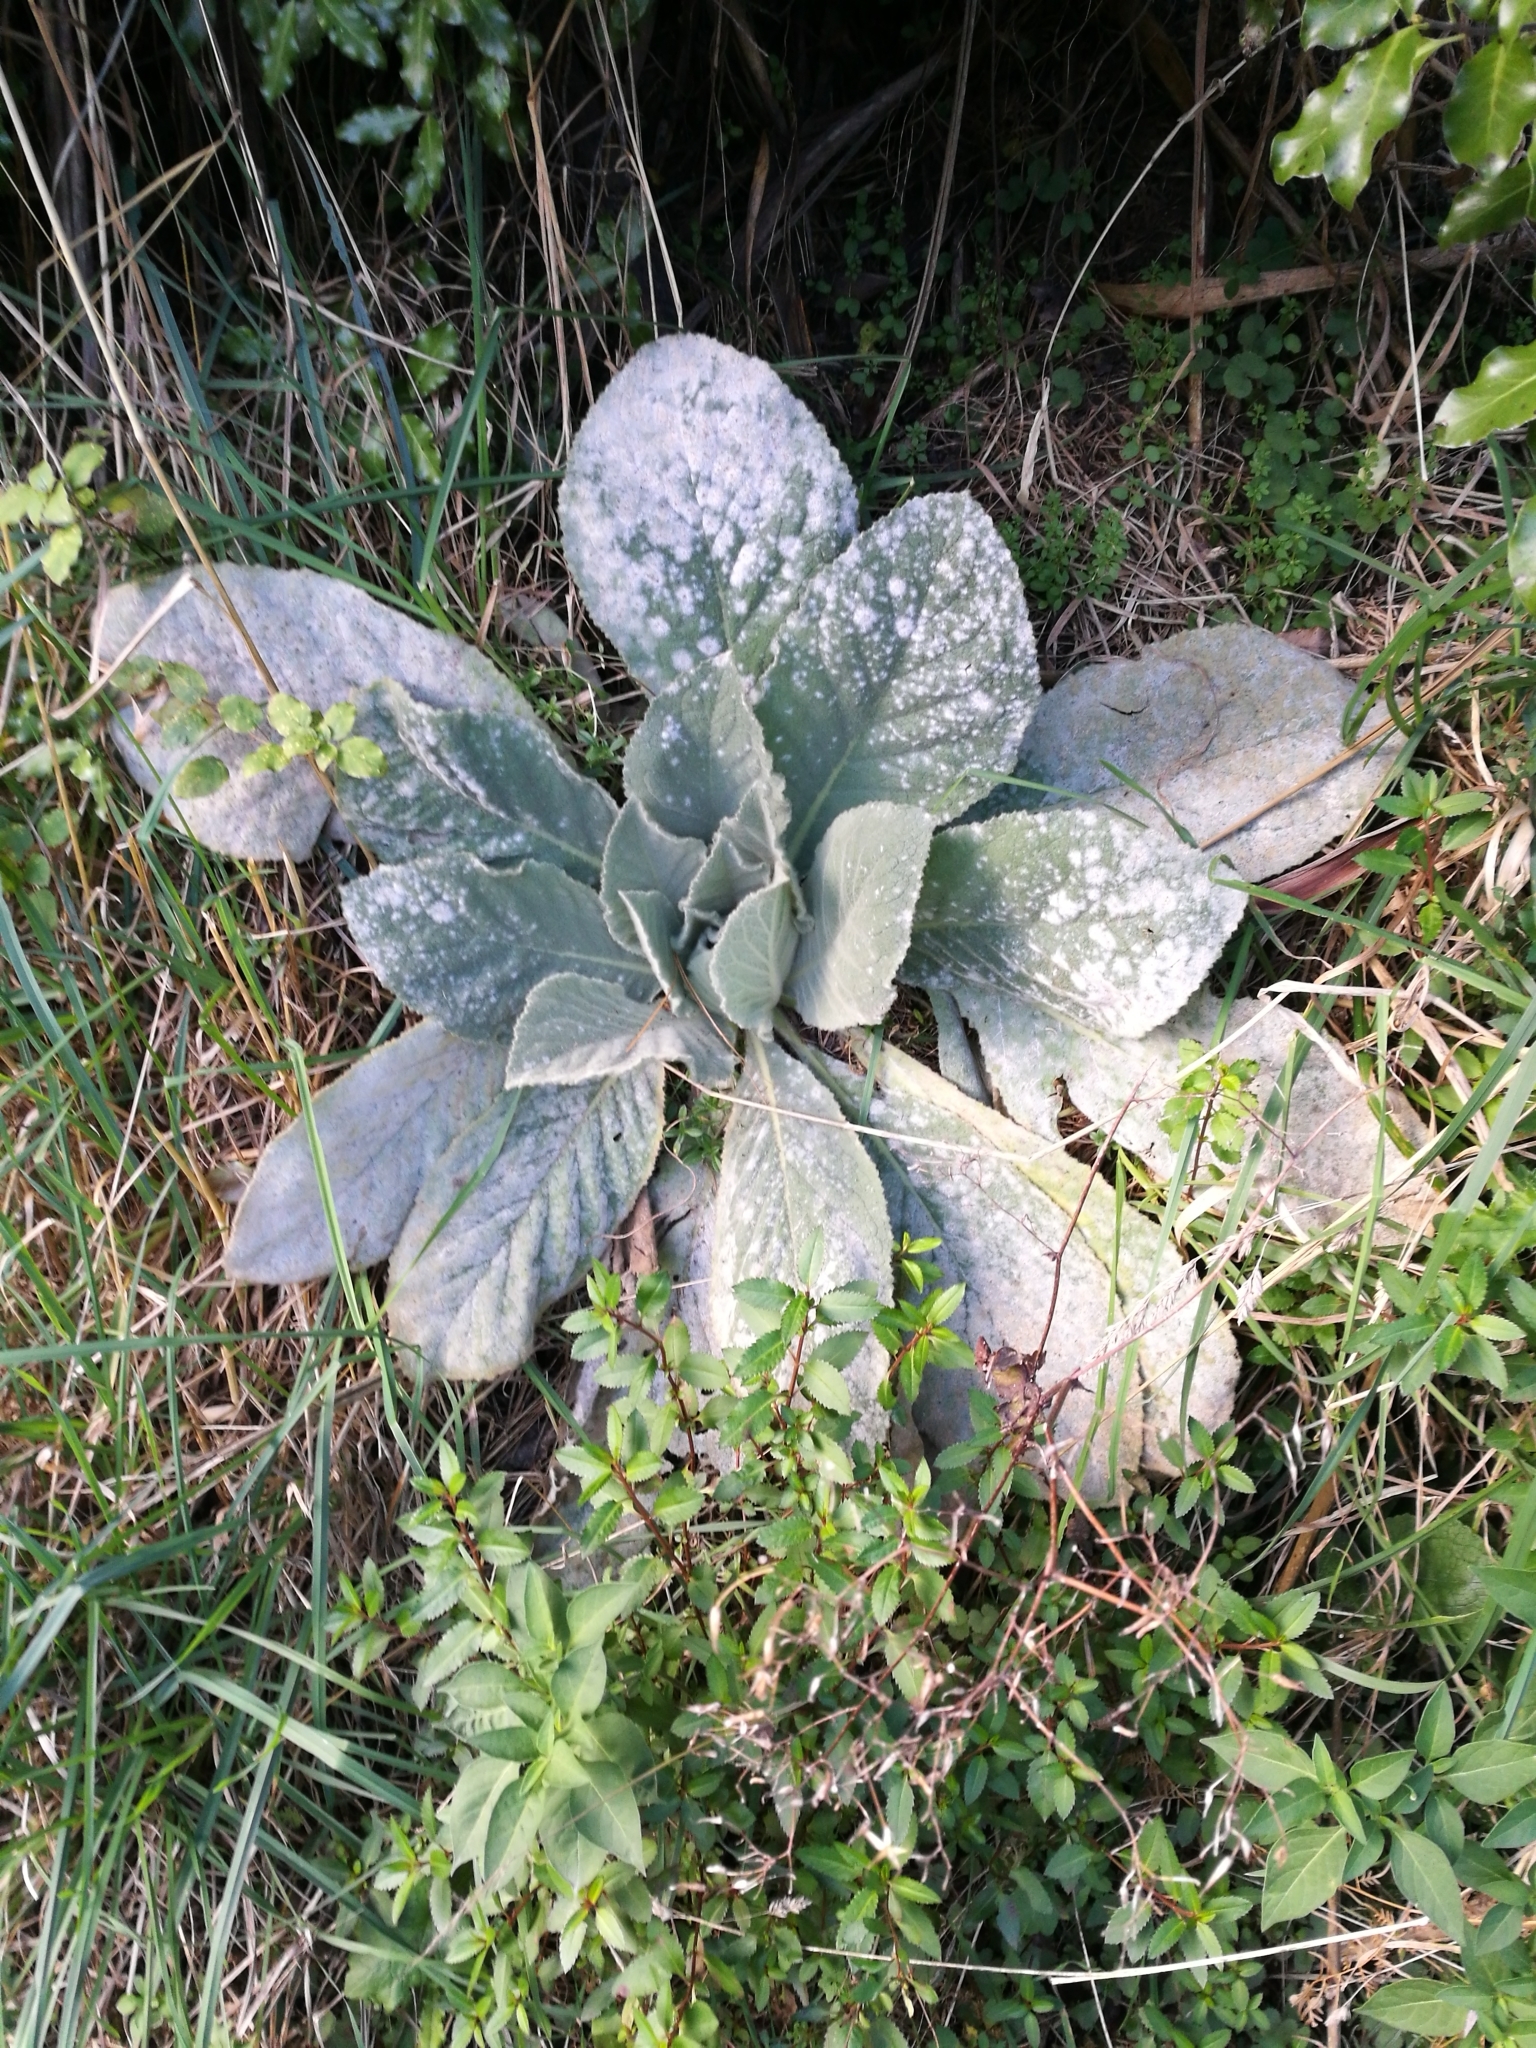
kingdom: Plantae
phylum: Tracheophyta
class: Magnoliopsida
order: Lamiales
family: Scrophulariaceae
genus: Verbascum
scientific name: Verbascum thapsus
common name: Common mullein
